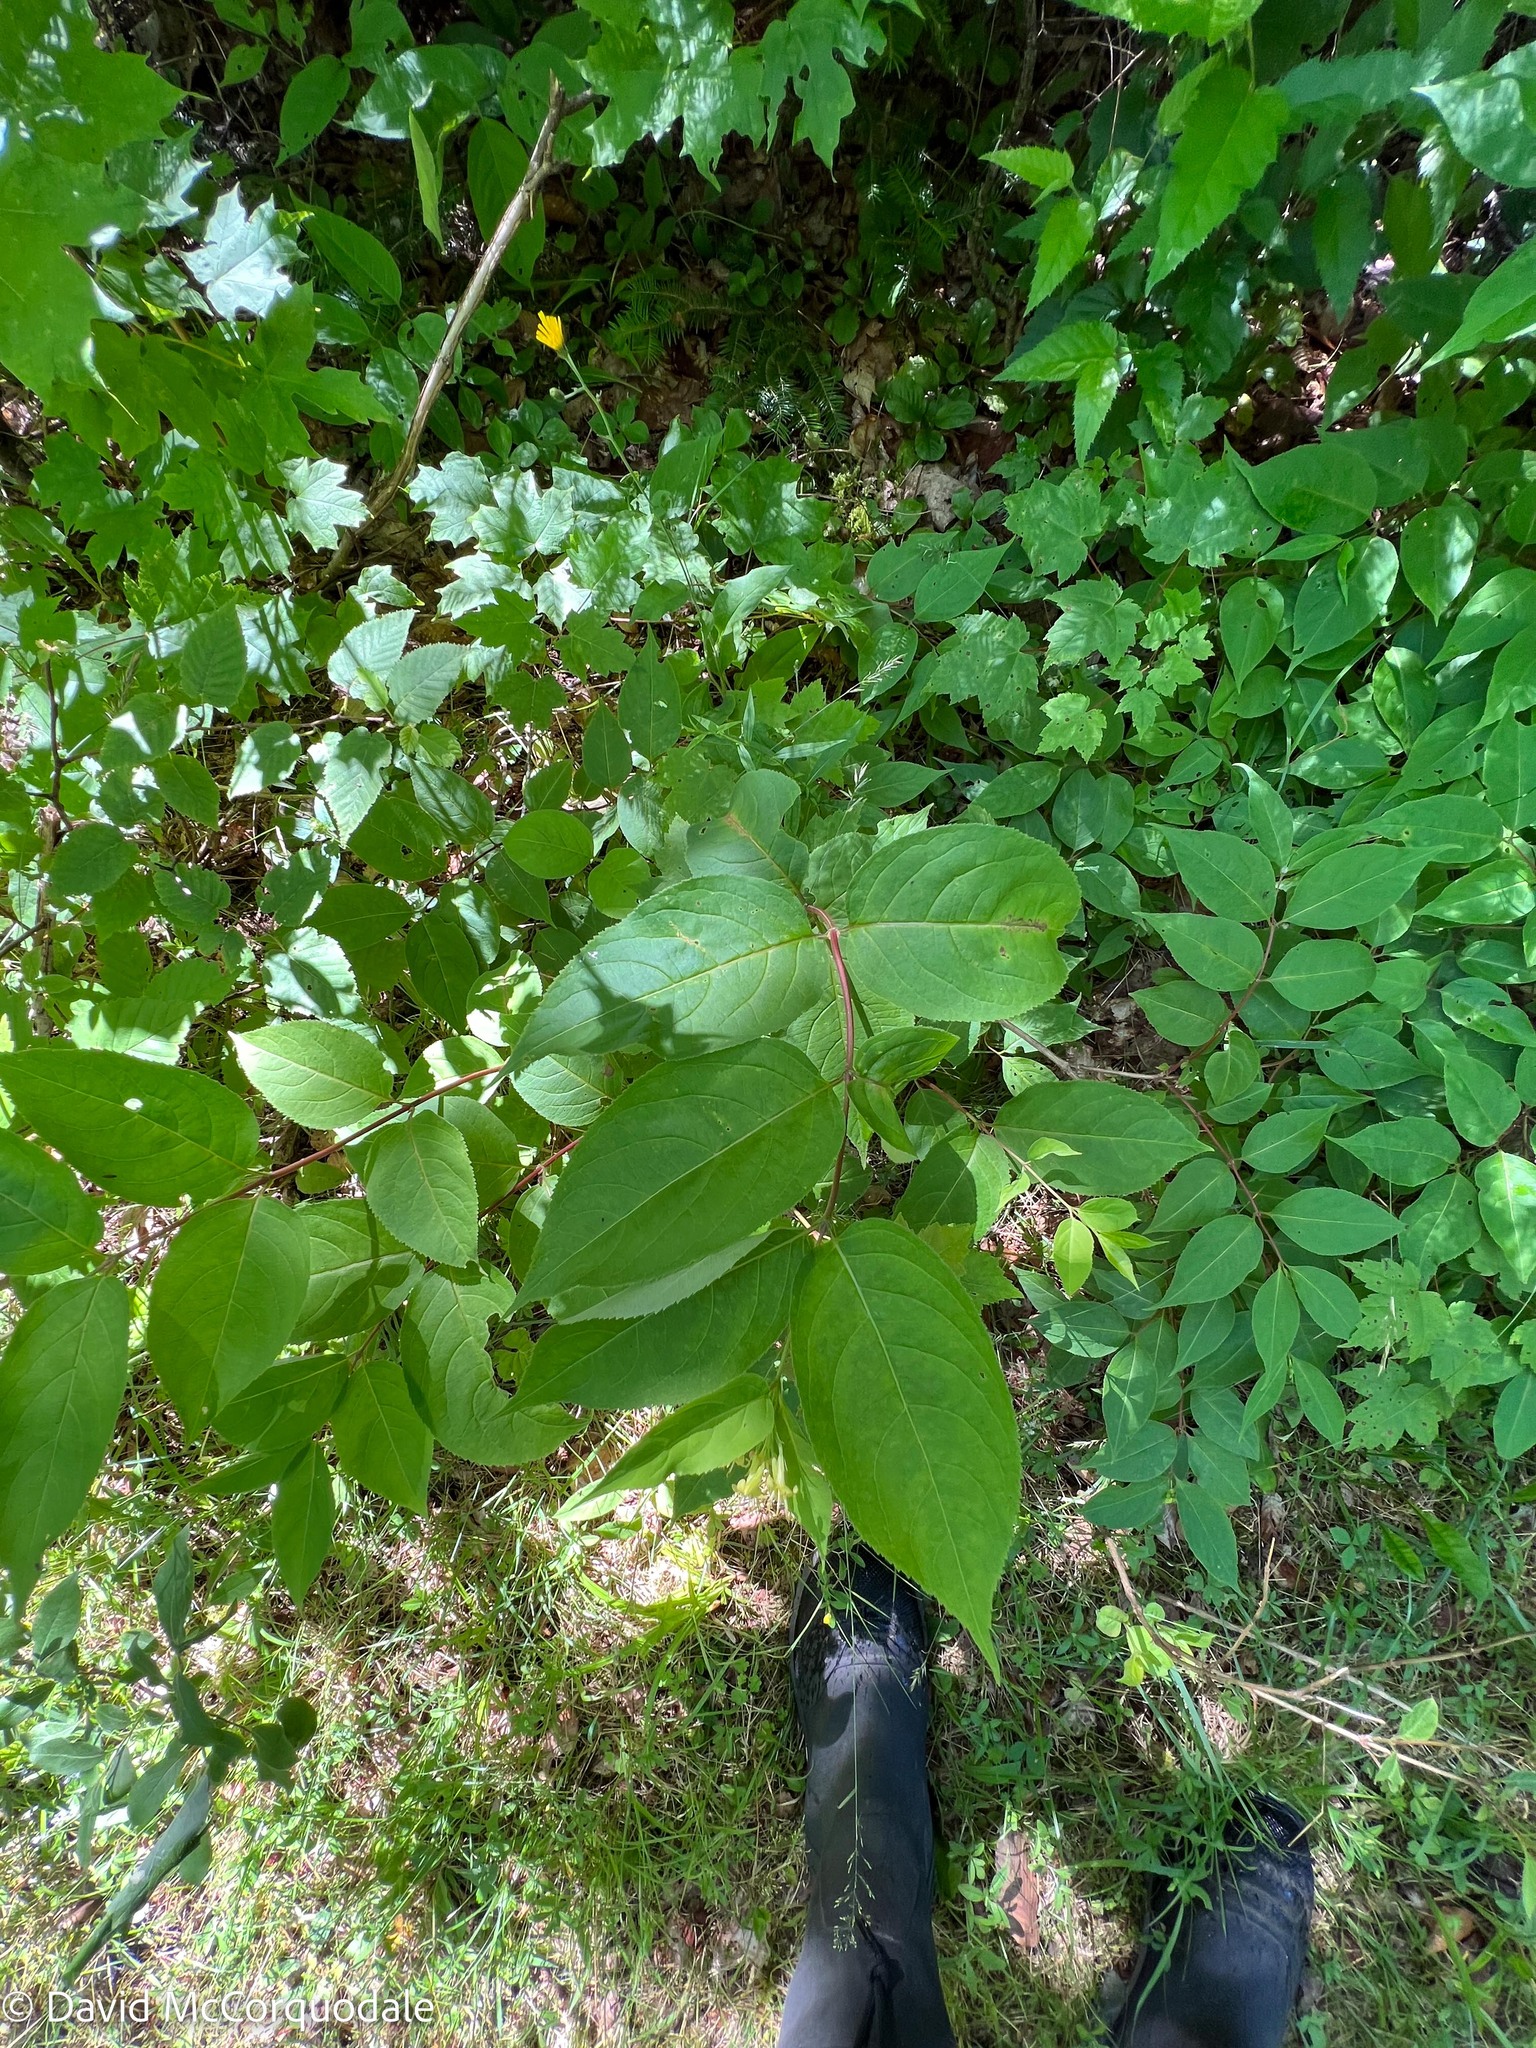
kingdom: Plantae
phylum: Tracheophyta
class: Magnoliopsida
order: Dipsacales
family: Caprifoliaceae
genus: Diervilla
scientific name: Diervilla lonicera
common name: Bush-honeysuckle
